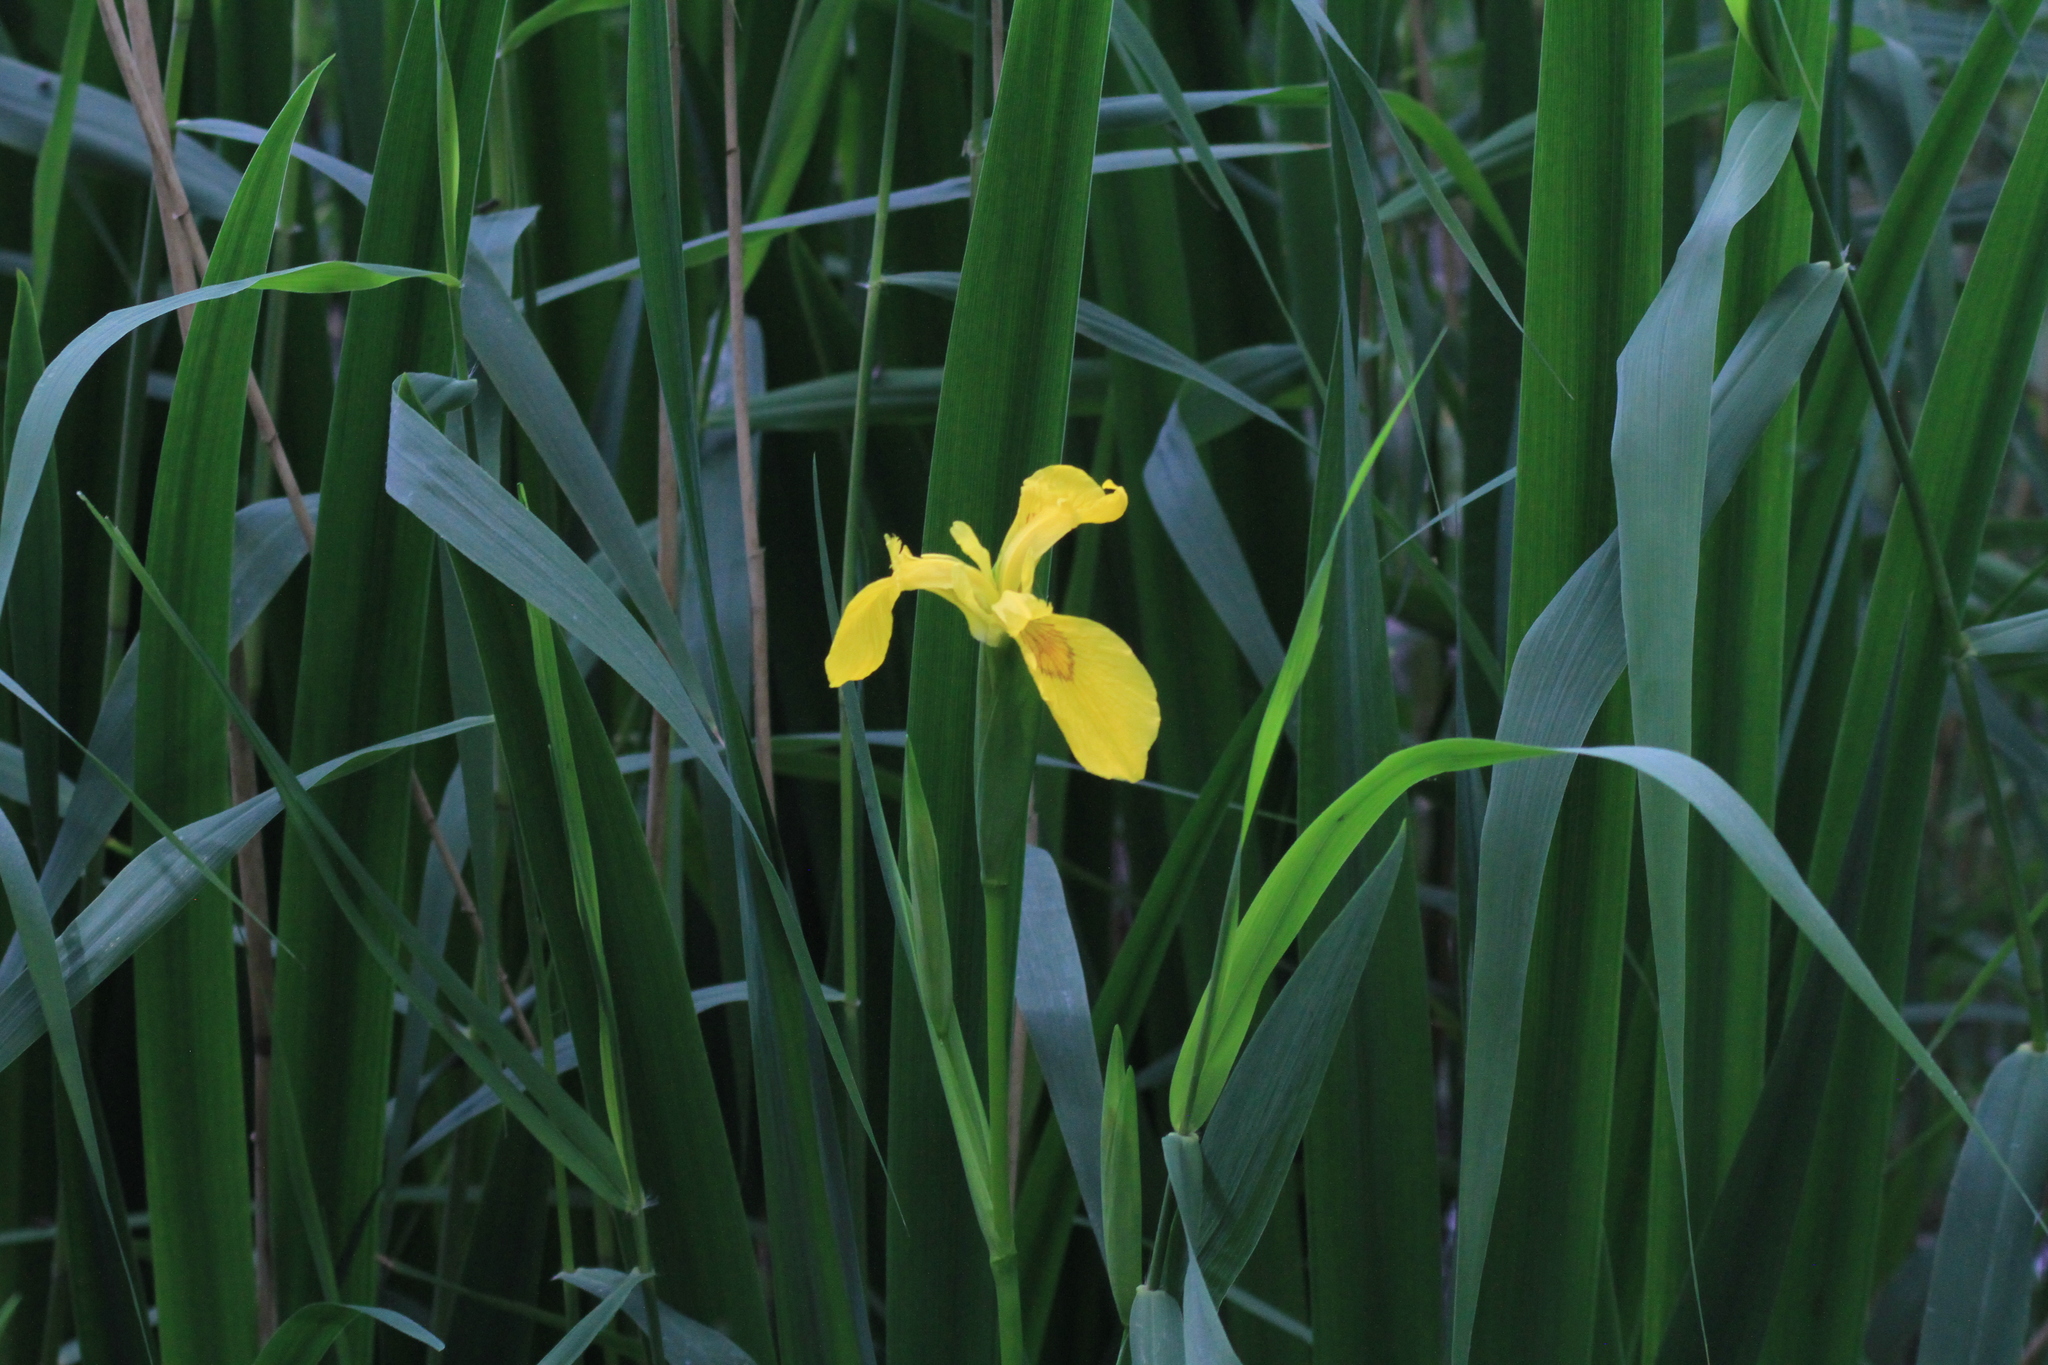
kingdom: Plantae
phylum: Tracheophyta
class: Liliopsida
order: Asparagales
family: Iridaceae
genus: Iris
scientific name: Iris pseudacorus
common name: Yellow flag
